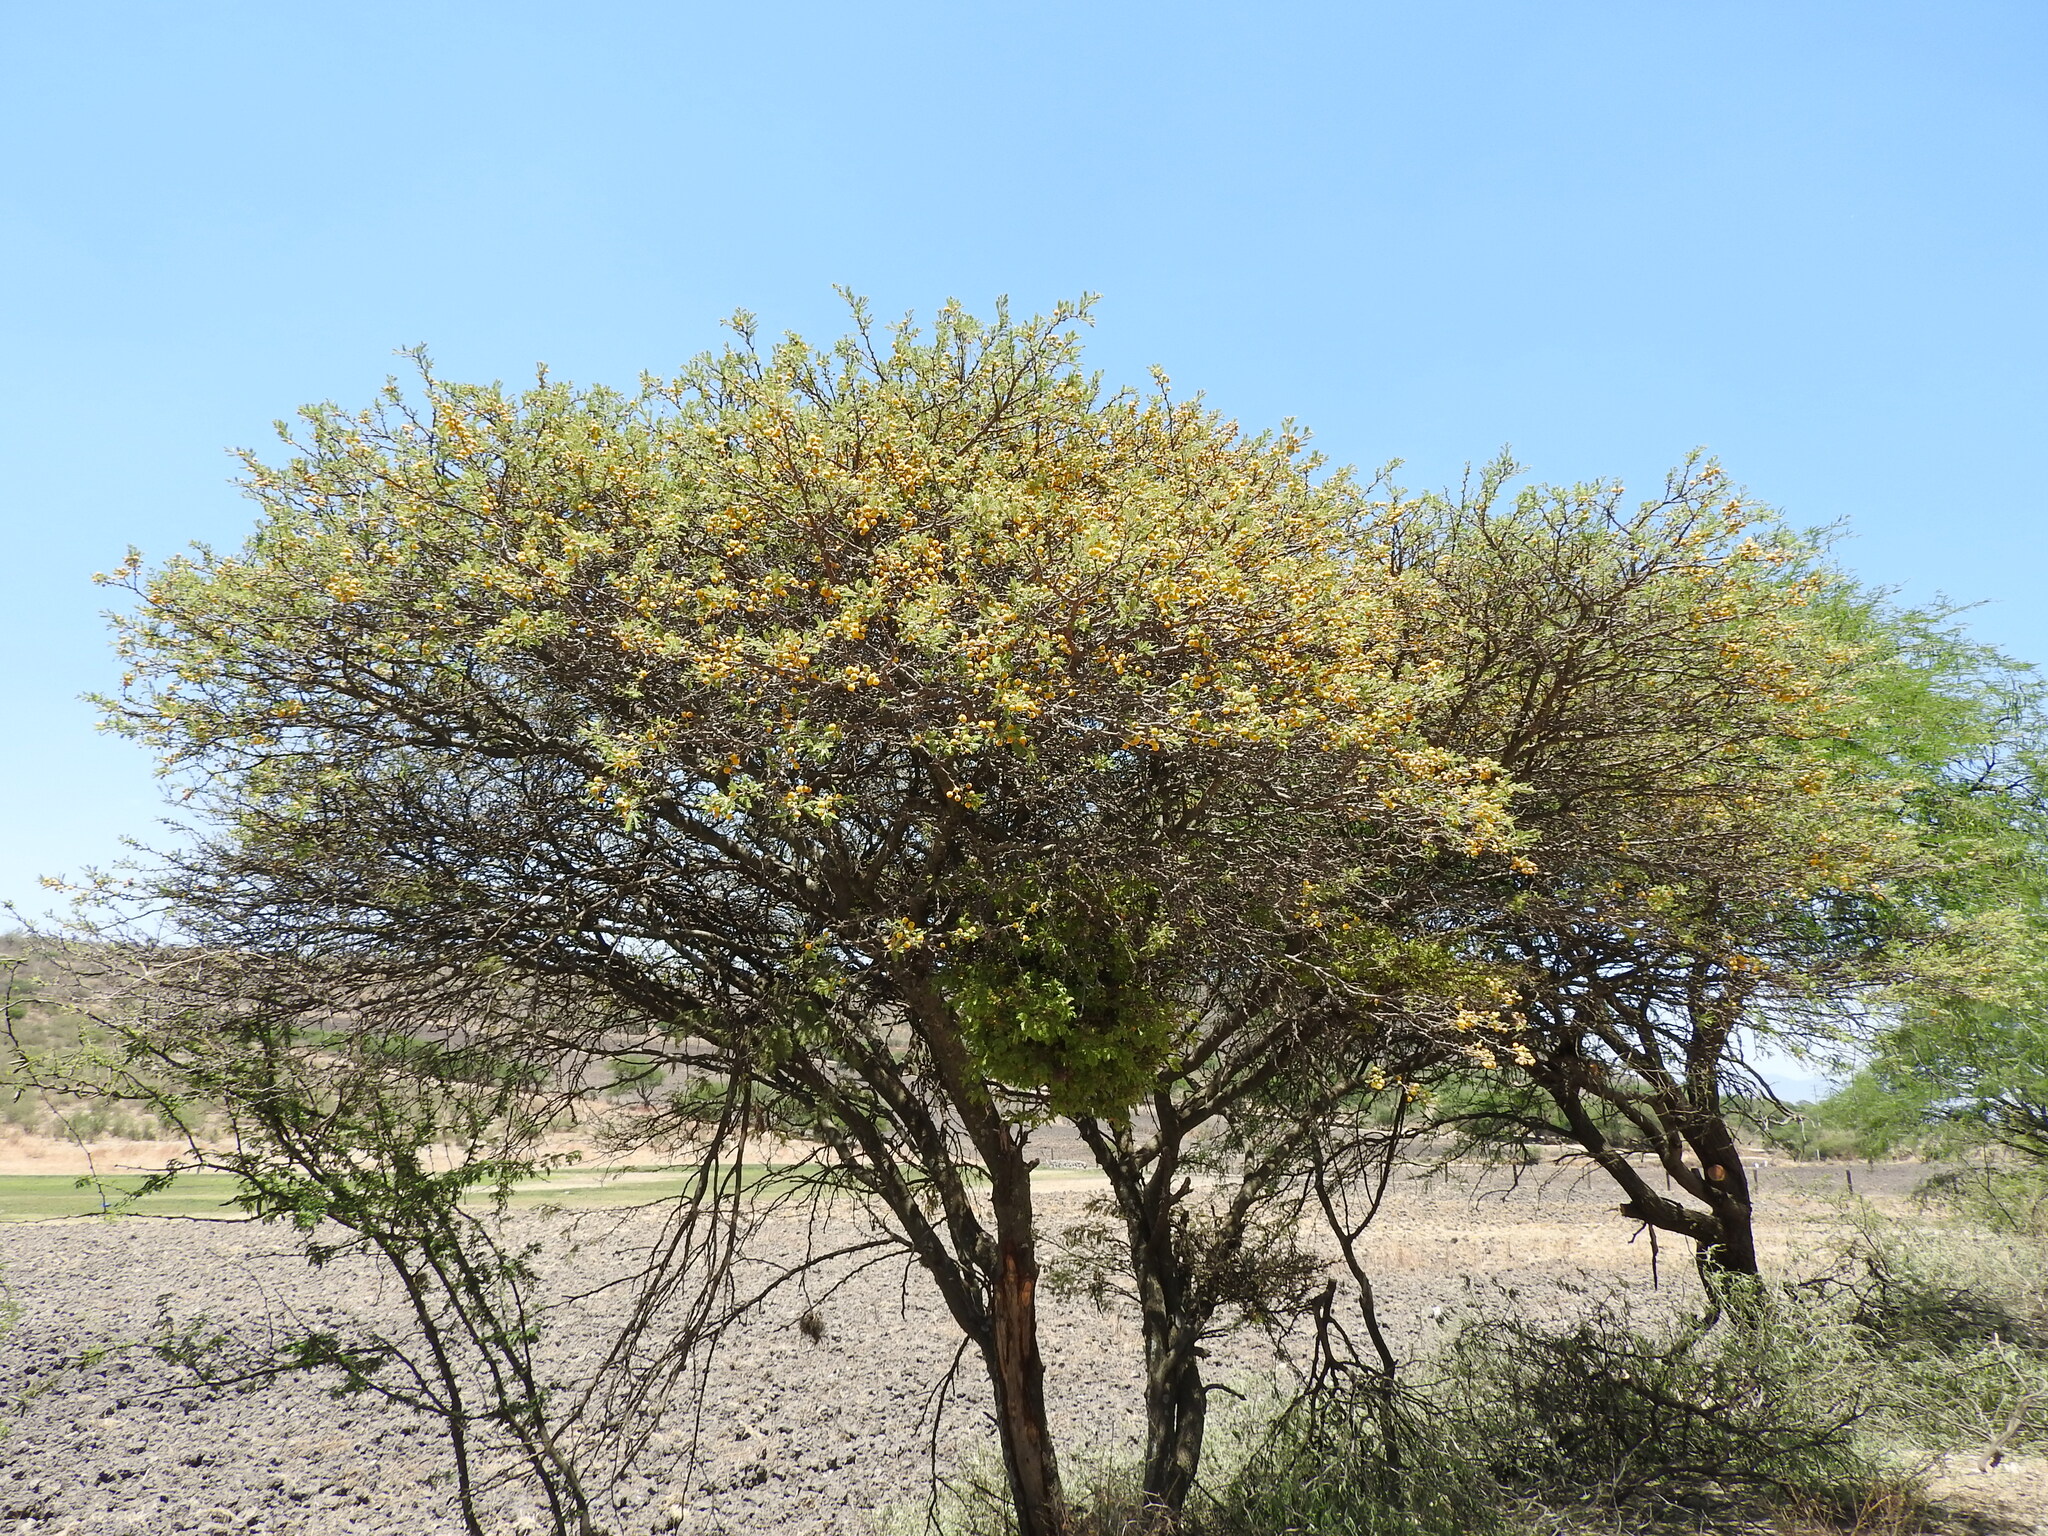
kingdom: Plantae
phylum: Tracheophyta
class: Magnoliopsida
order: Fabales
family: Fabaceae
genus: Vachellia
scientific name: Vachellia schaffneri
